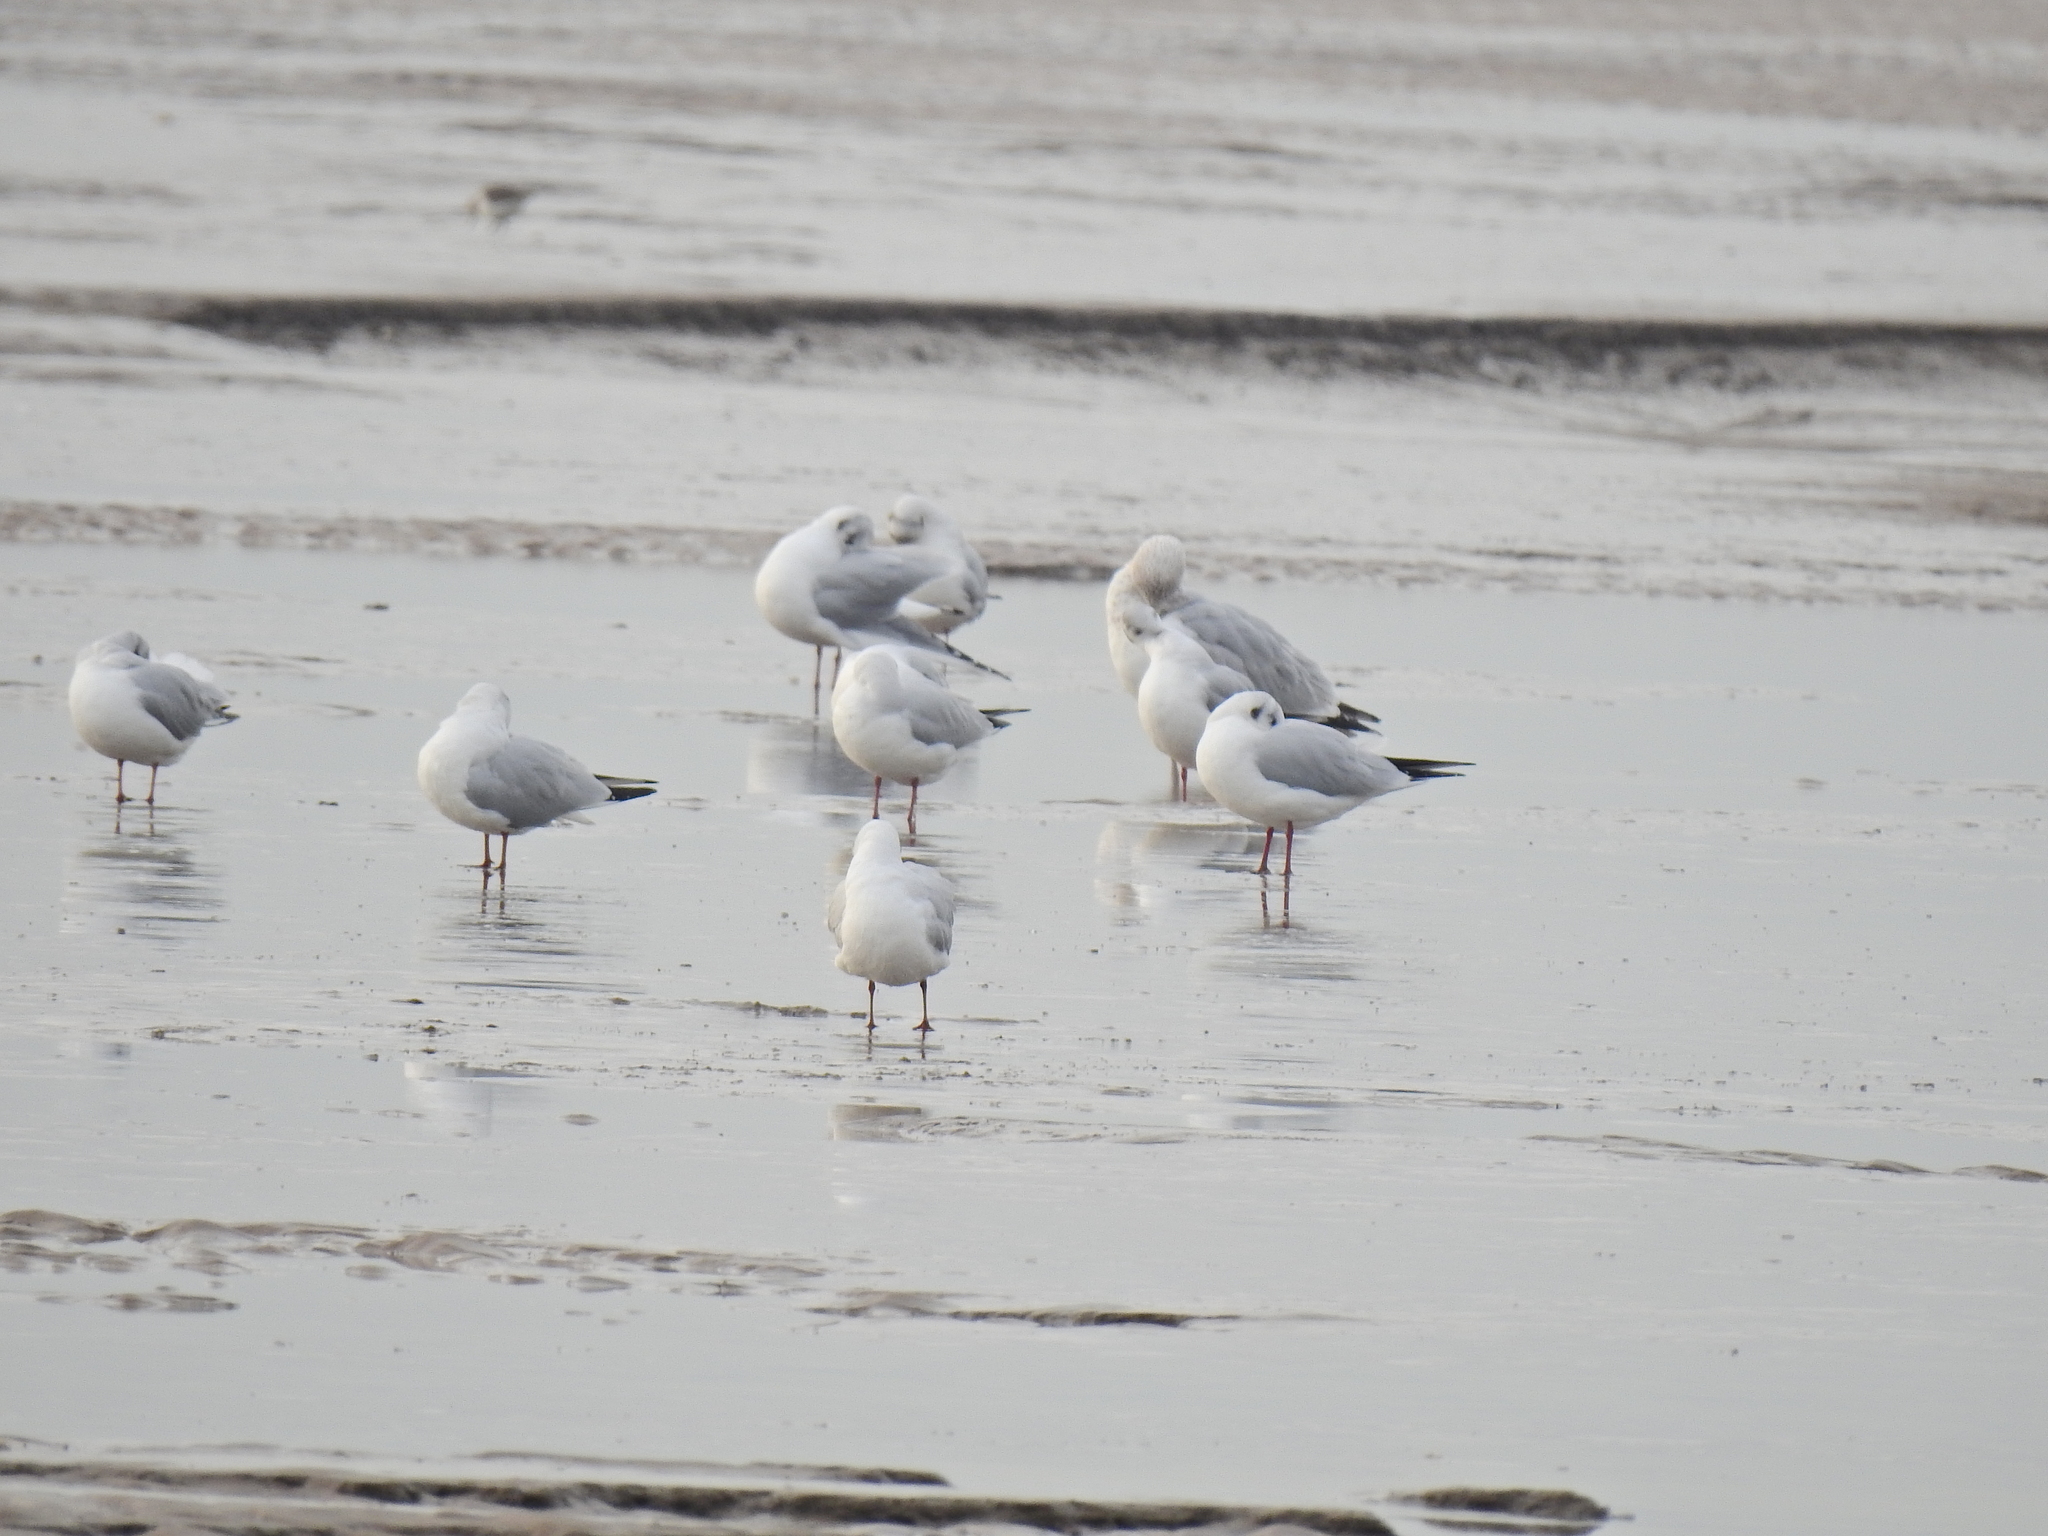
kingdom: Animalia
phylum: Chordata
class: Aves
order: Charadriiformes
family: Laridae
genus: Chroicocephalus
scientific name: Chroicocephalus ridibundus
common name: Black-headed gull
